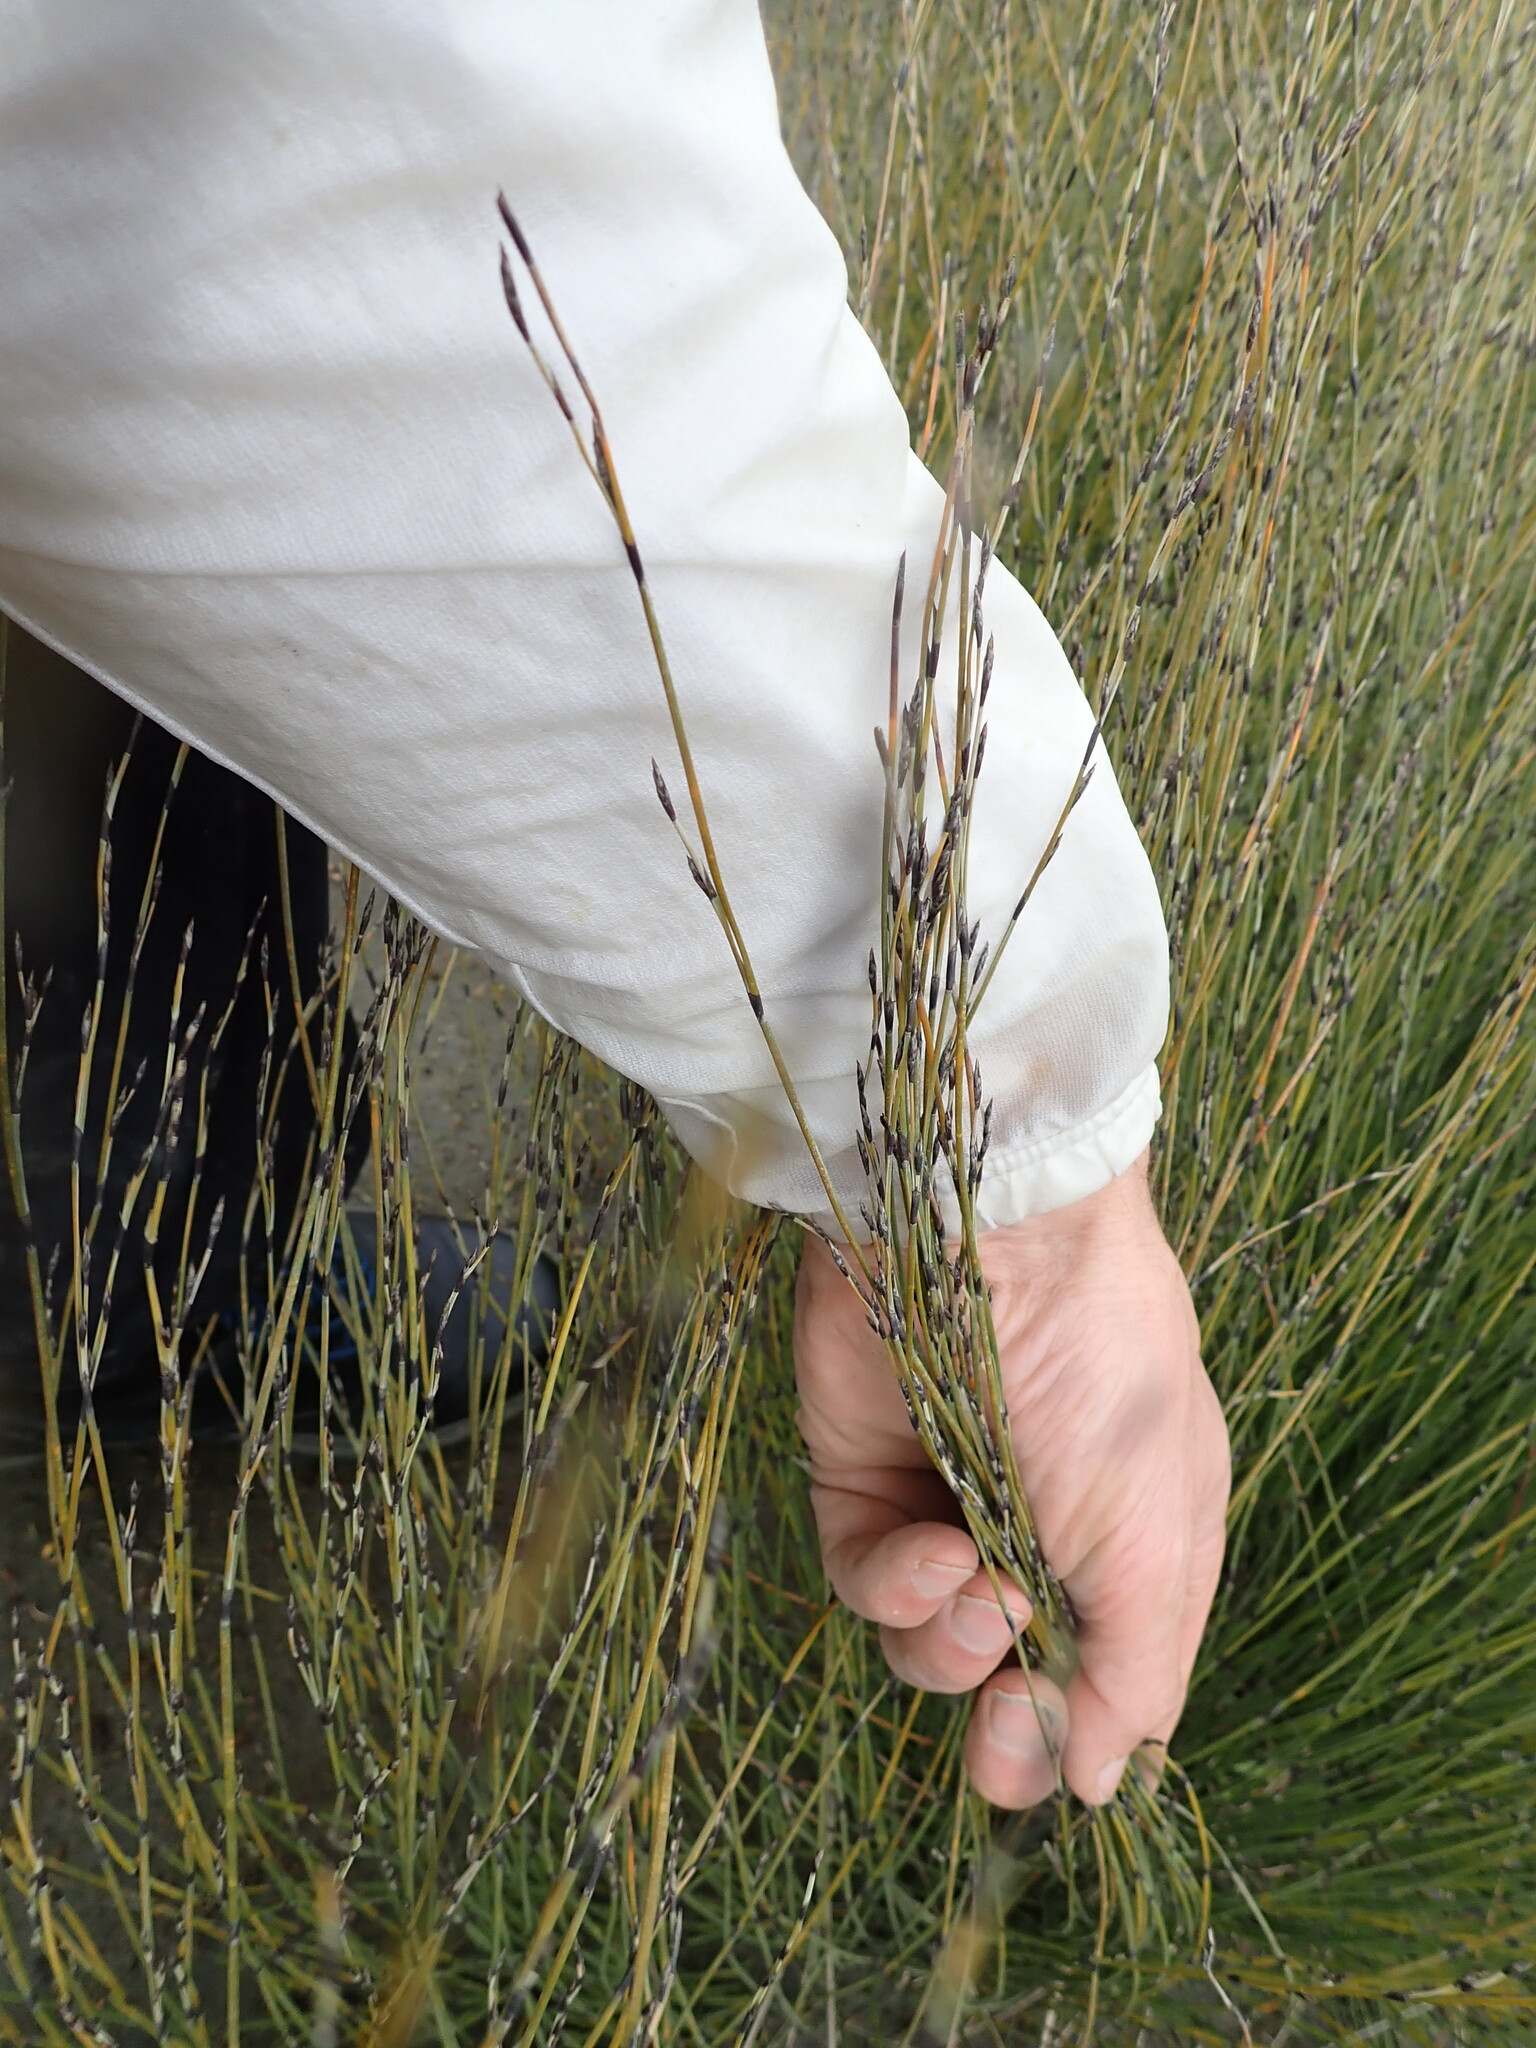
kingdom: Plantae
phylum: Tracheophyta
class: Liliopsida
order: Poales
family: Restionaceae
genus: Apodasmia
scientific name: Apodasmia similis
